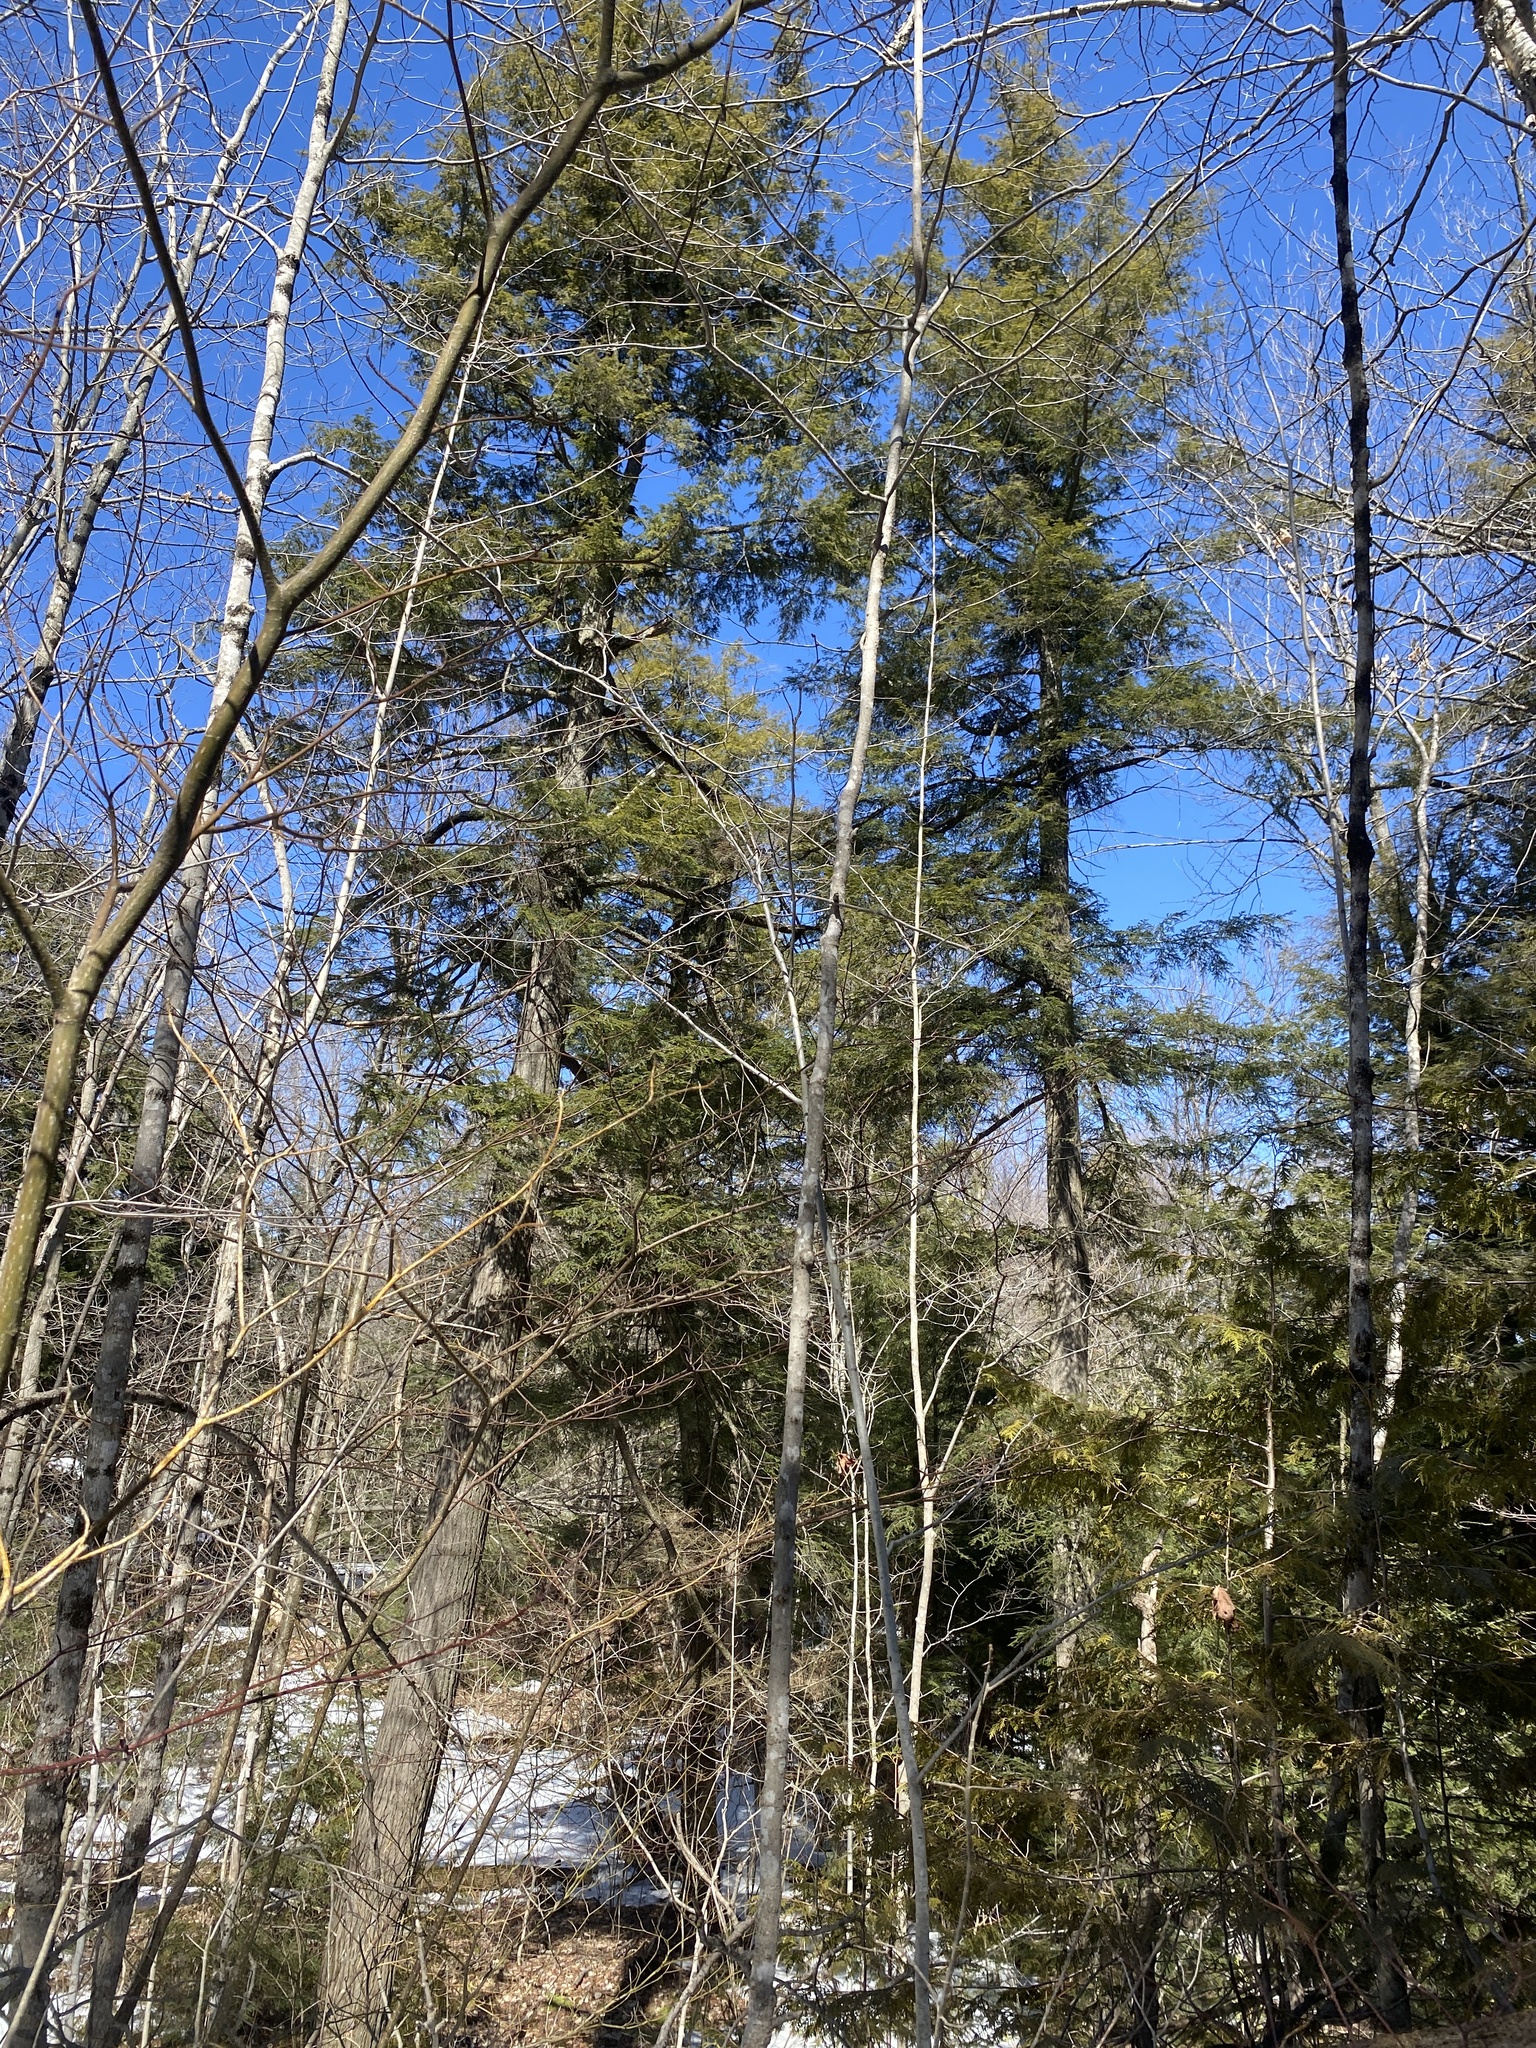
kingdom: Plantae
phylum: Tracheophyta
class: Pinopsida
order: Pinales
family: Pinaceae
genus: Tsuga
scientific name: Tsuga canadensis
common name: Eastern hemlock
